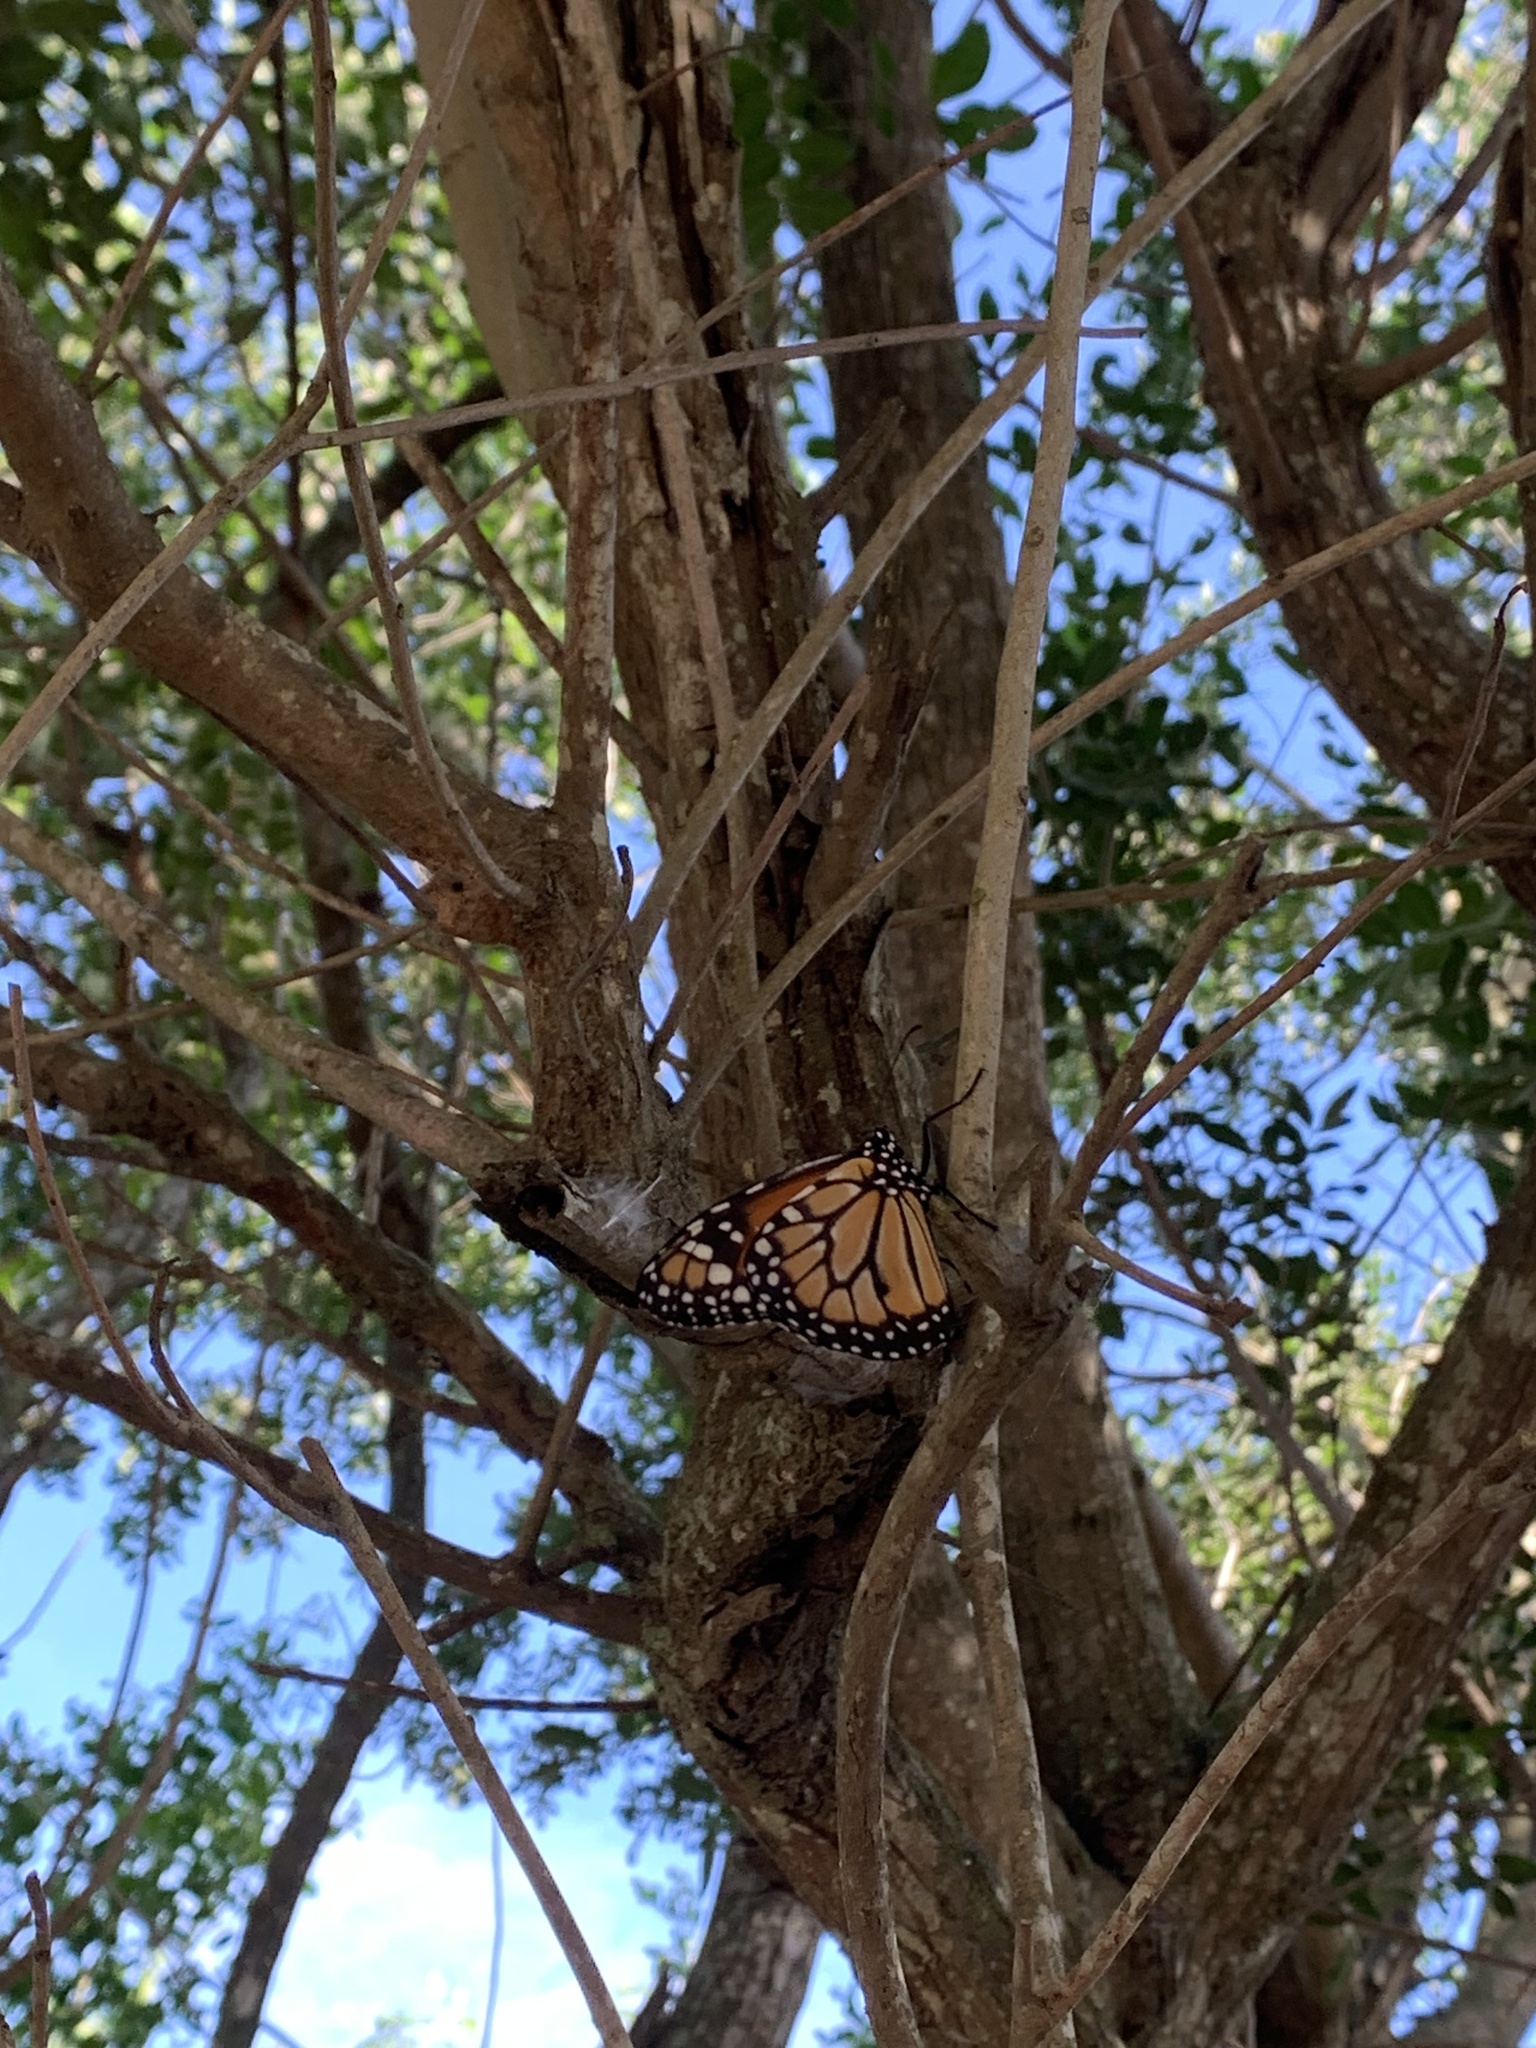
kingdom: Animalia
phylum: Arthropoda
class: Insecta
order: Lepidoptera
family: Nymphalidae
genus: Danaus
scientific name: Danaus erippus
